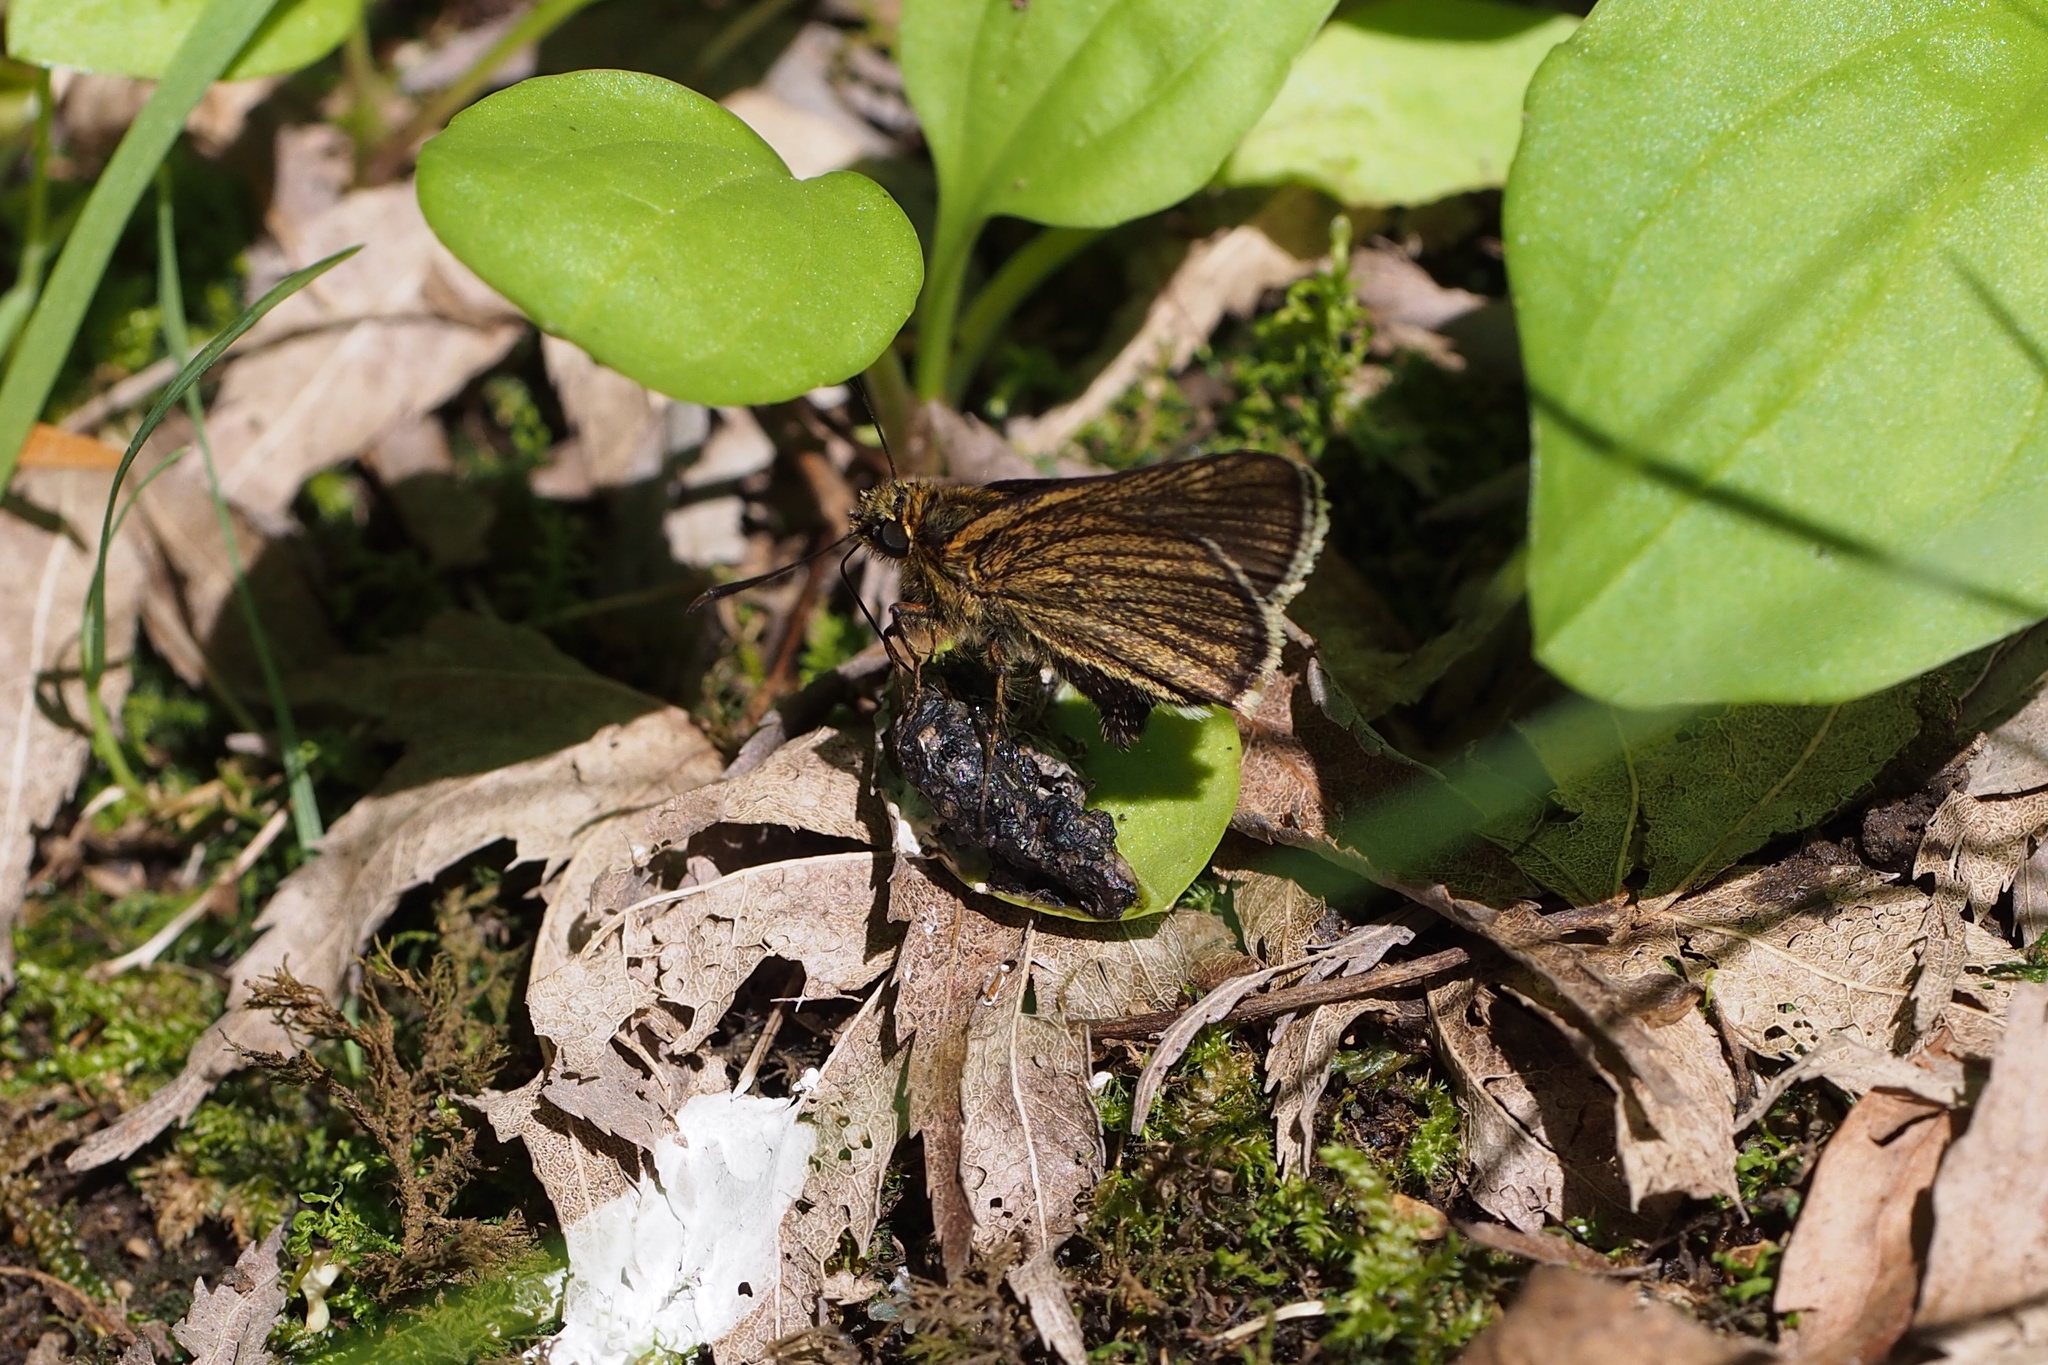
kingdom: Animalia
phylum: Arthropoda
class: Insecta
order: Lepidoptera
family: Hesperiidae
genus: Thoressa
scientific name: Thoressa varia
